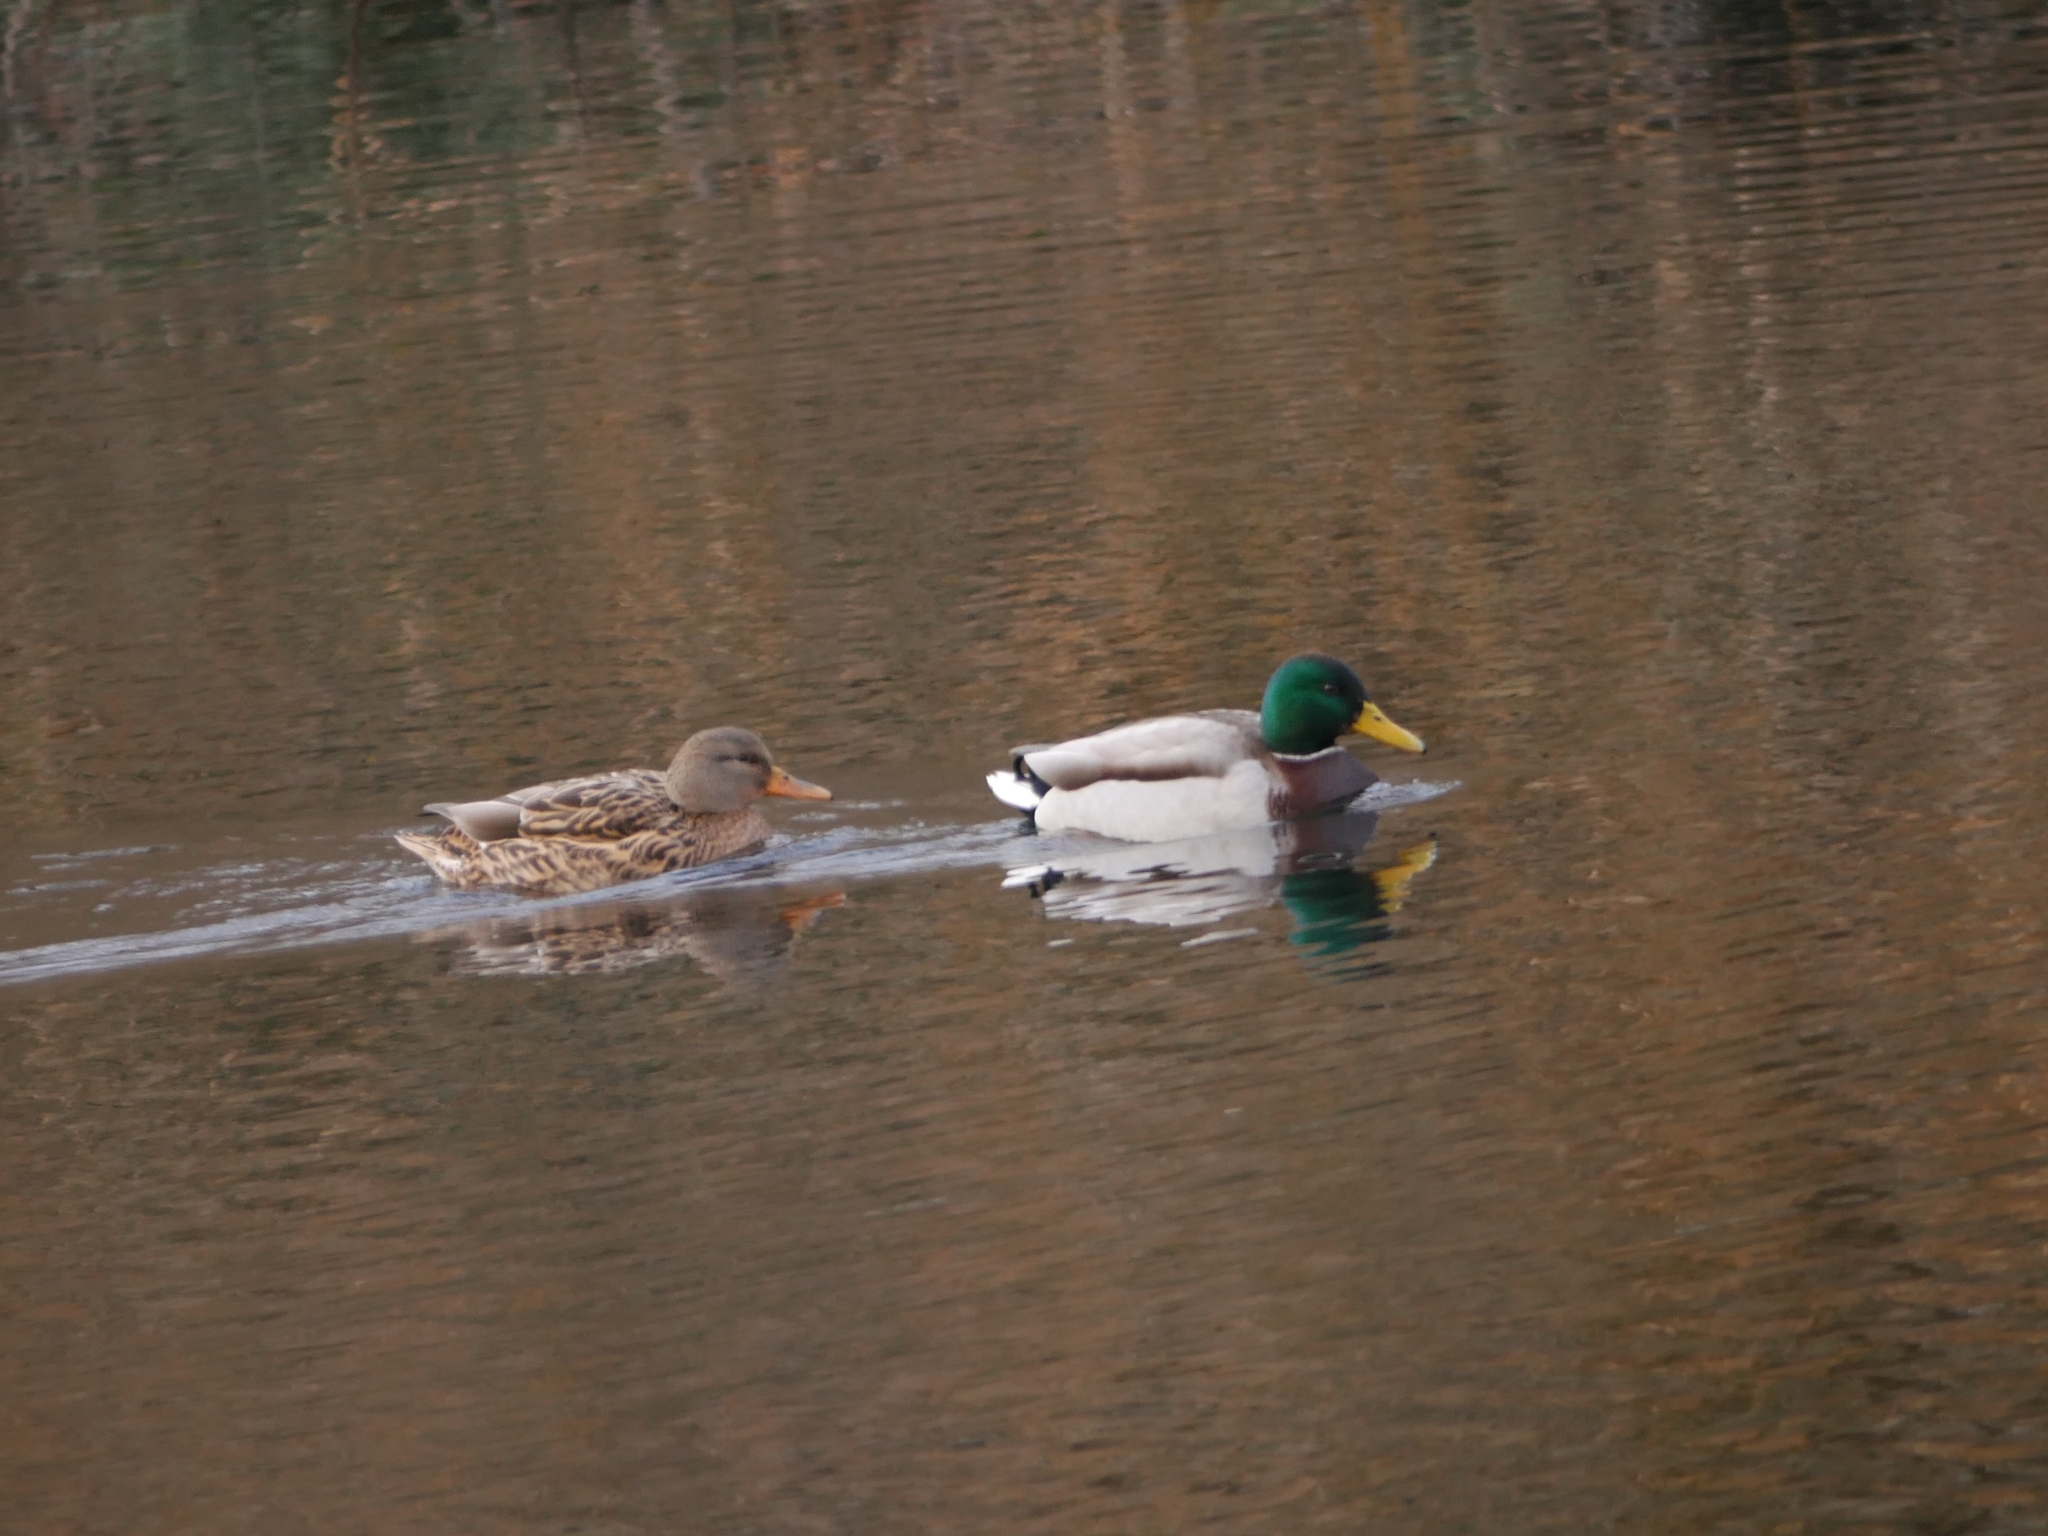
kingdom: Animalia
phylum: Chordata
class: Aves
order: Anseriformes
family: Anatidae
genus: Anas
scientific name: Anas platyrhynchos
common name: Mallard
